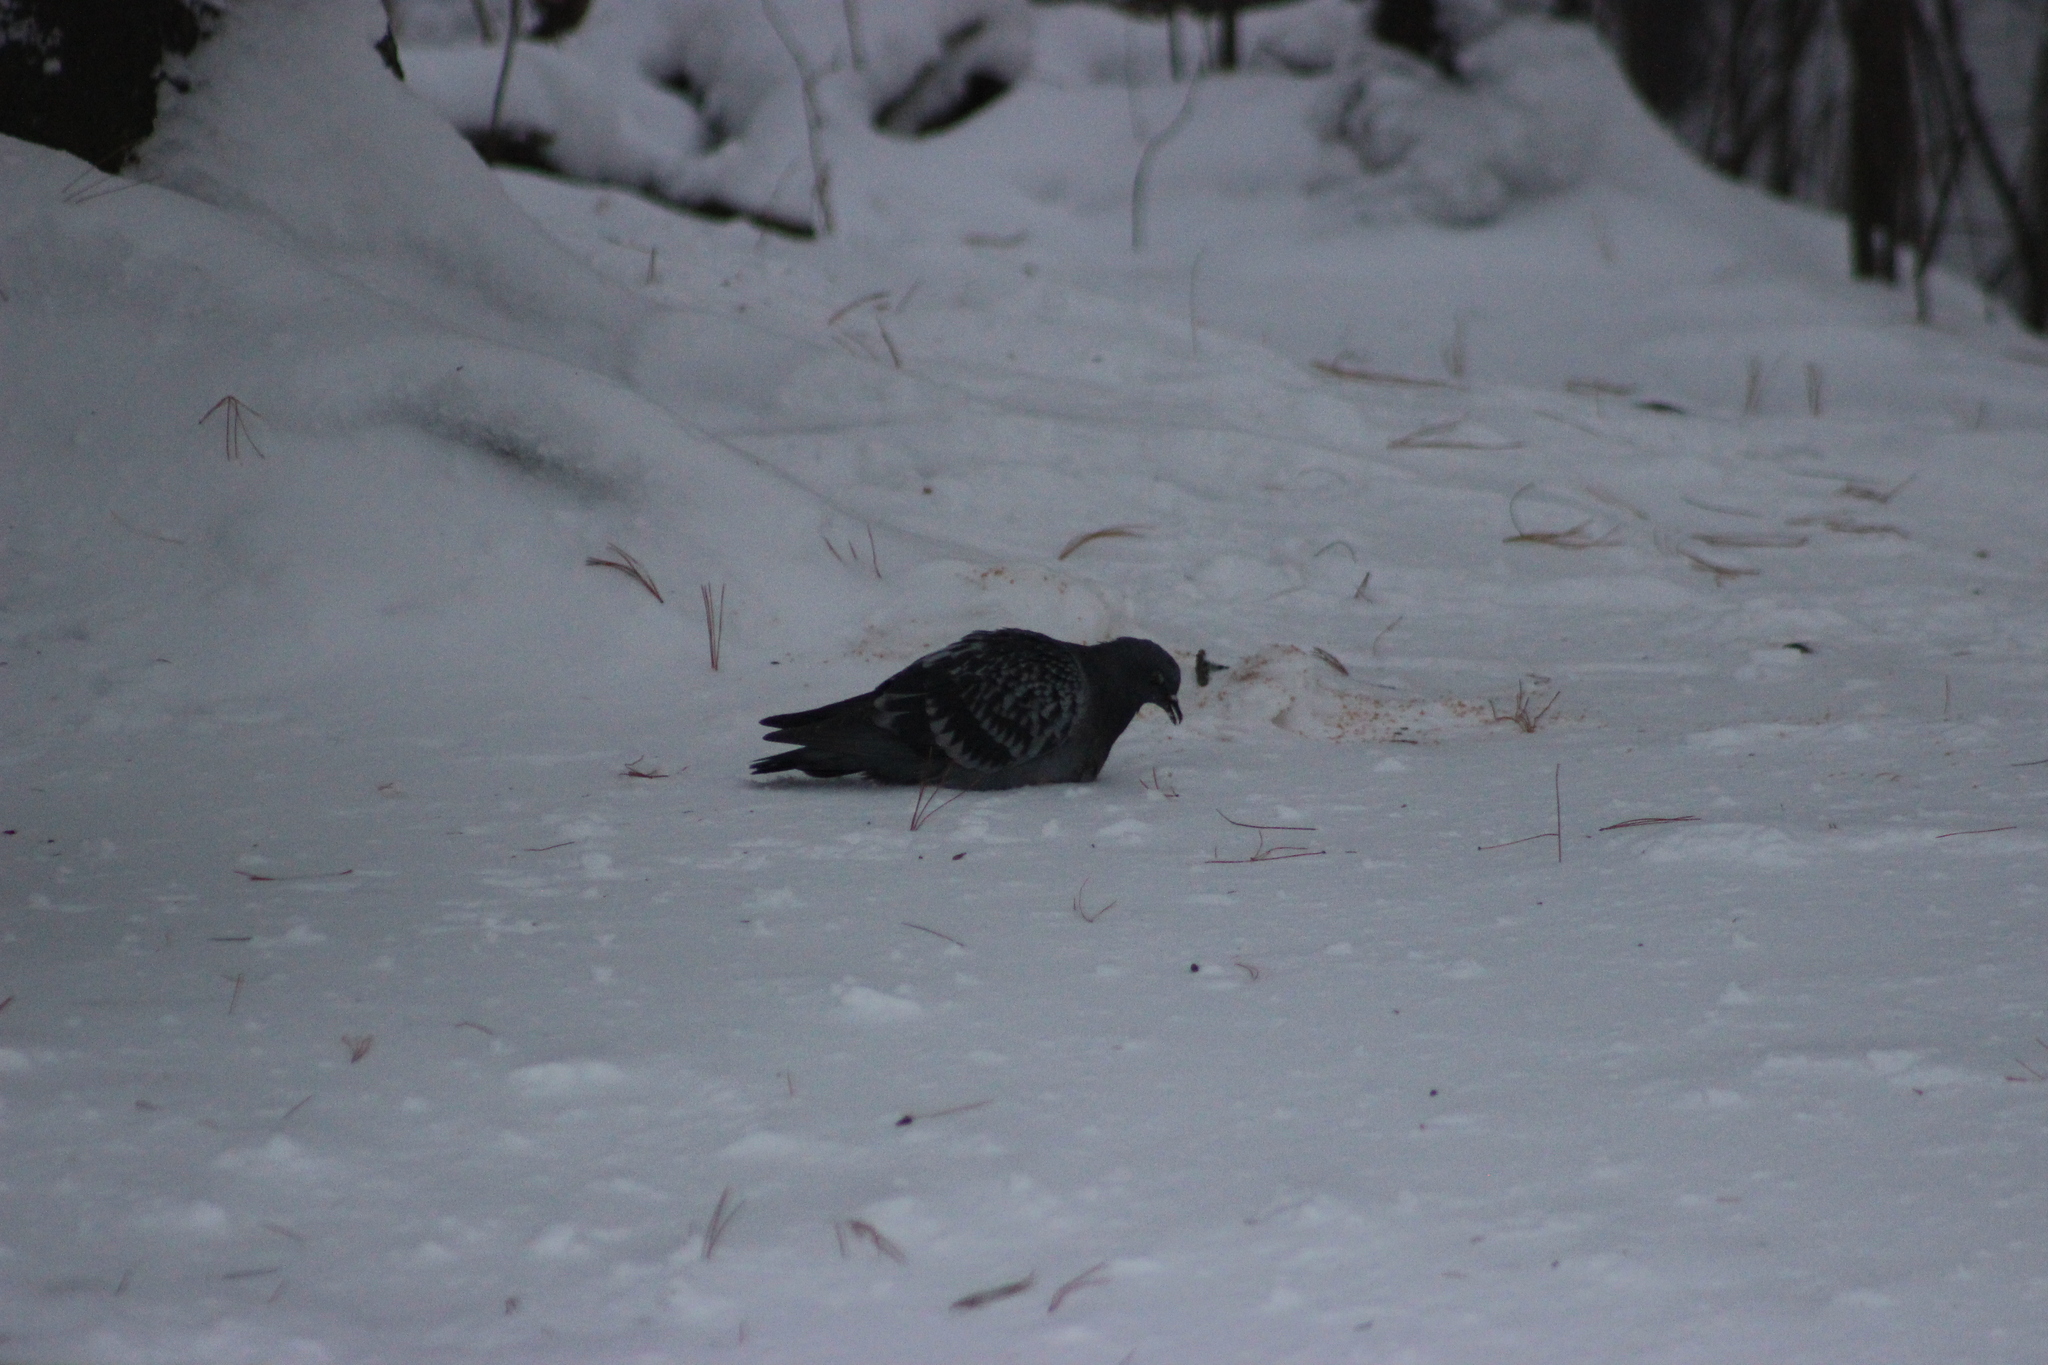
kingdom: Animalia
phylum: Chordata
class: Aves
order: Columbiformes
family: Columbidae
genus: Columba
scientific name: Columba livia
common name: Rock pigeon
